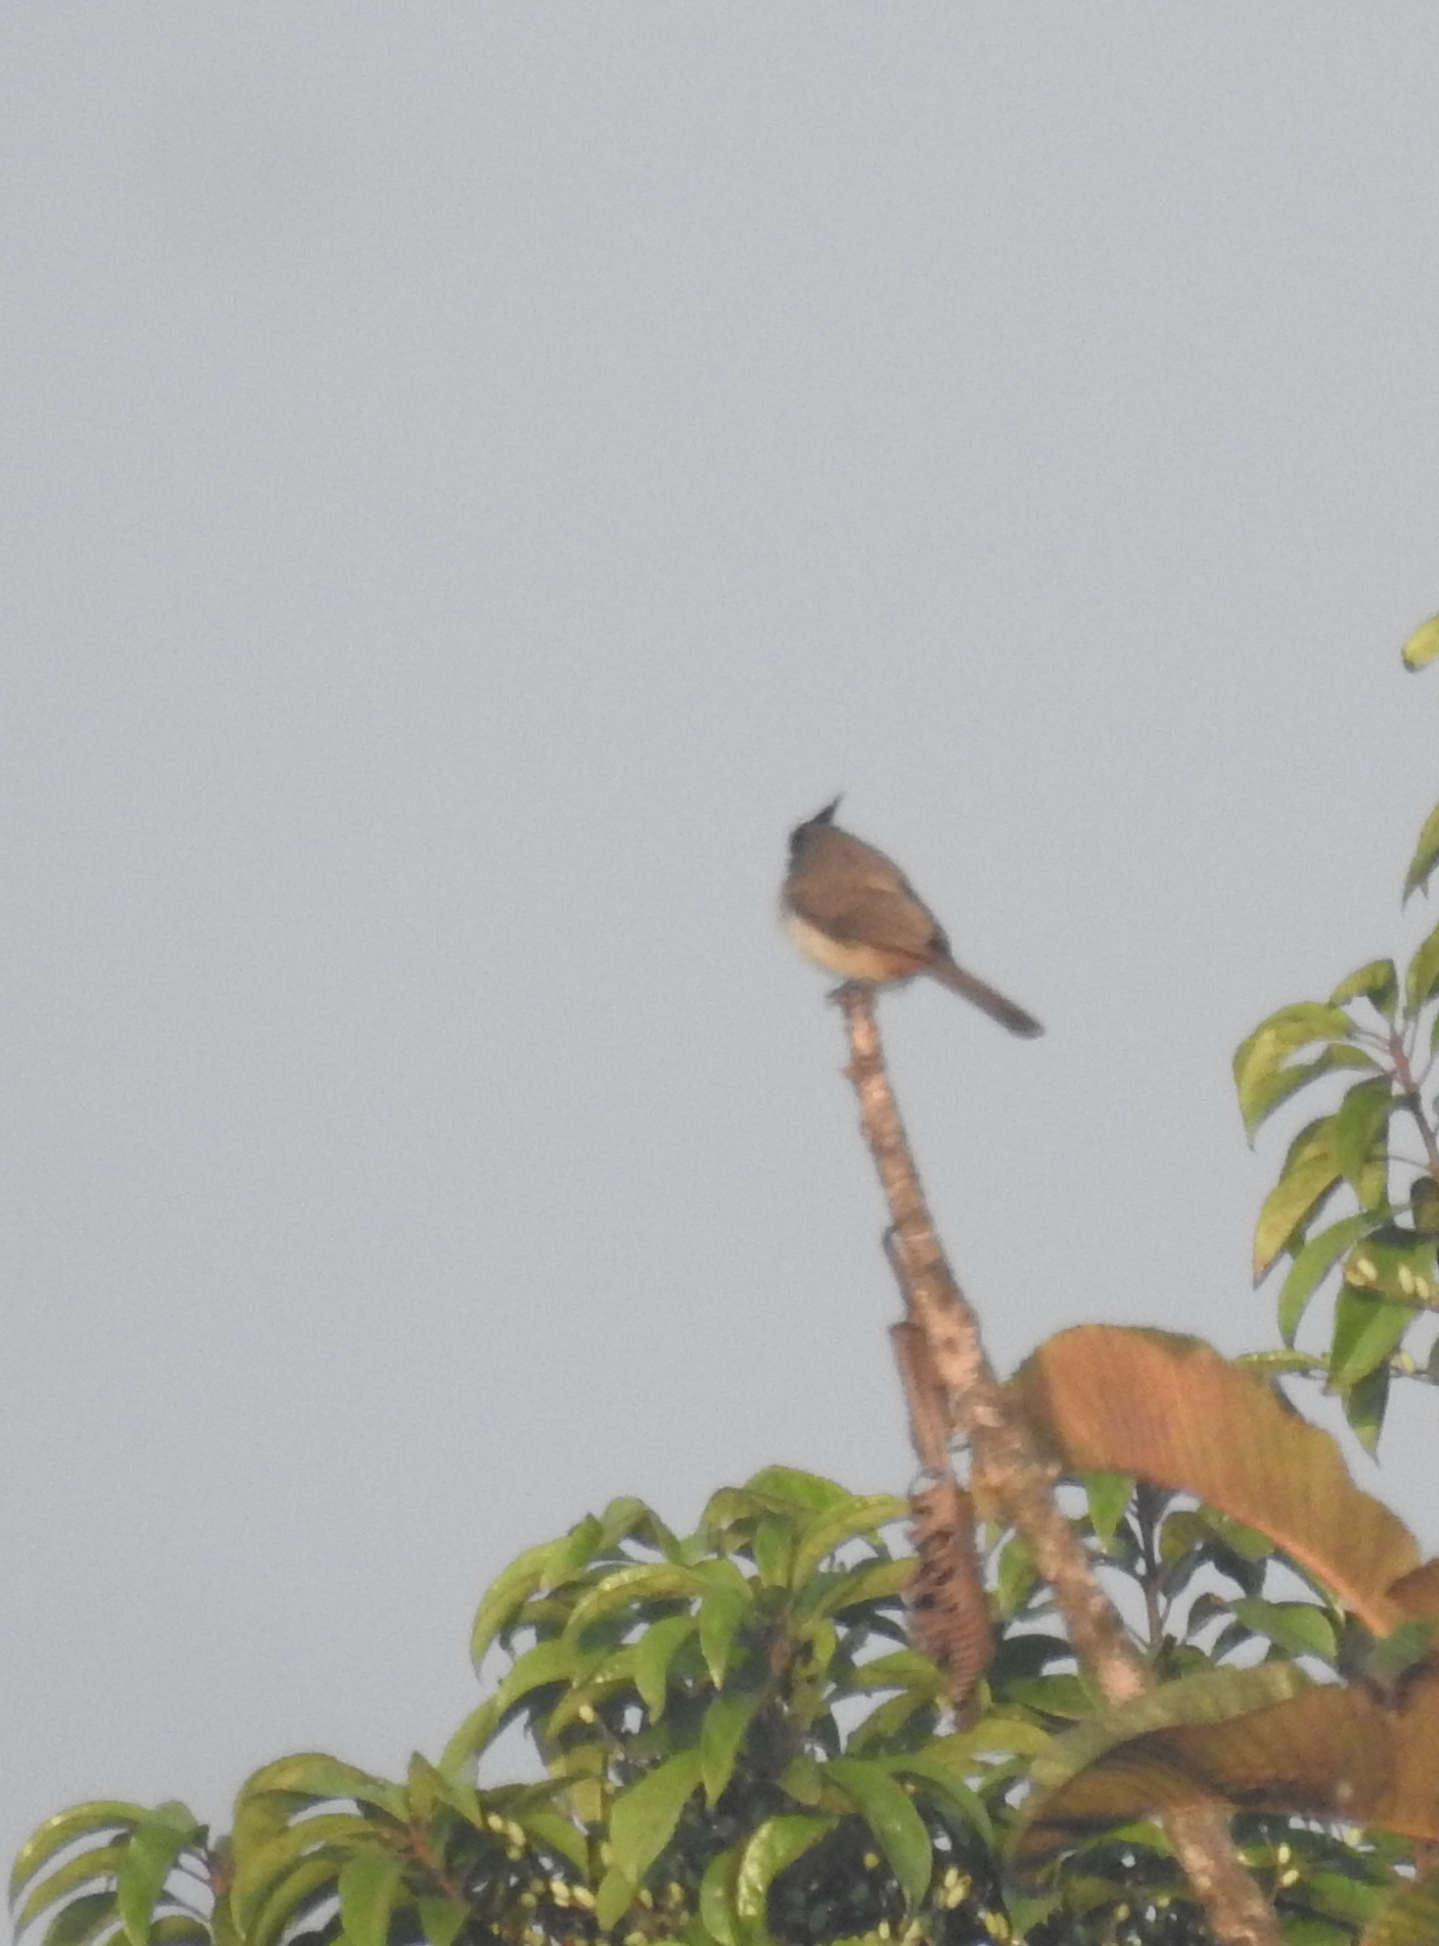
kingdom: Animalia
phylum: Chordata
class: Aves
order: Passeriformes
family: Pycnonotidae
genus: Pycnonotus
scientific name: Pycnonotus jocosus
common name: Red-whiskered bulbul
